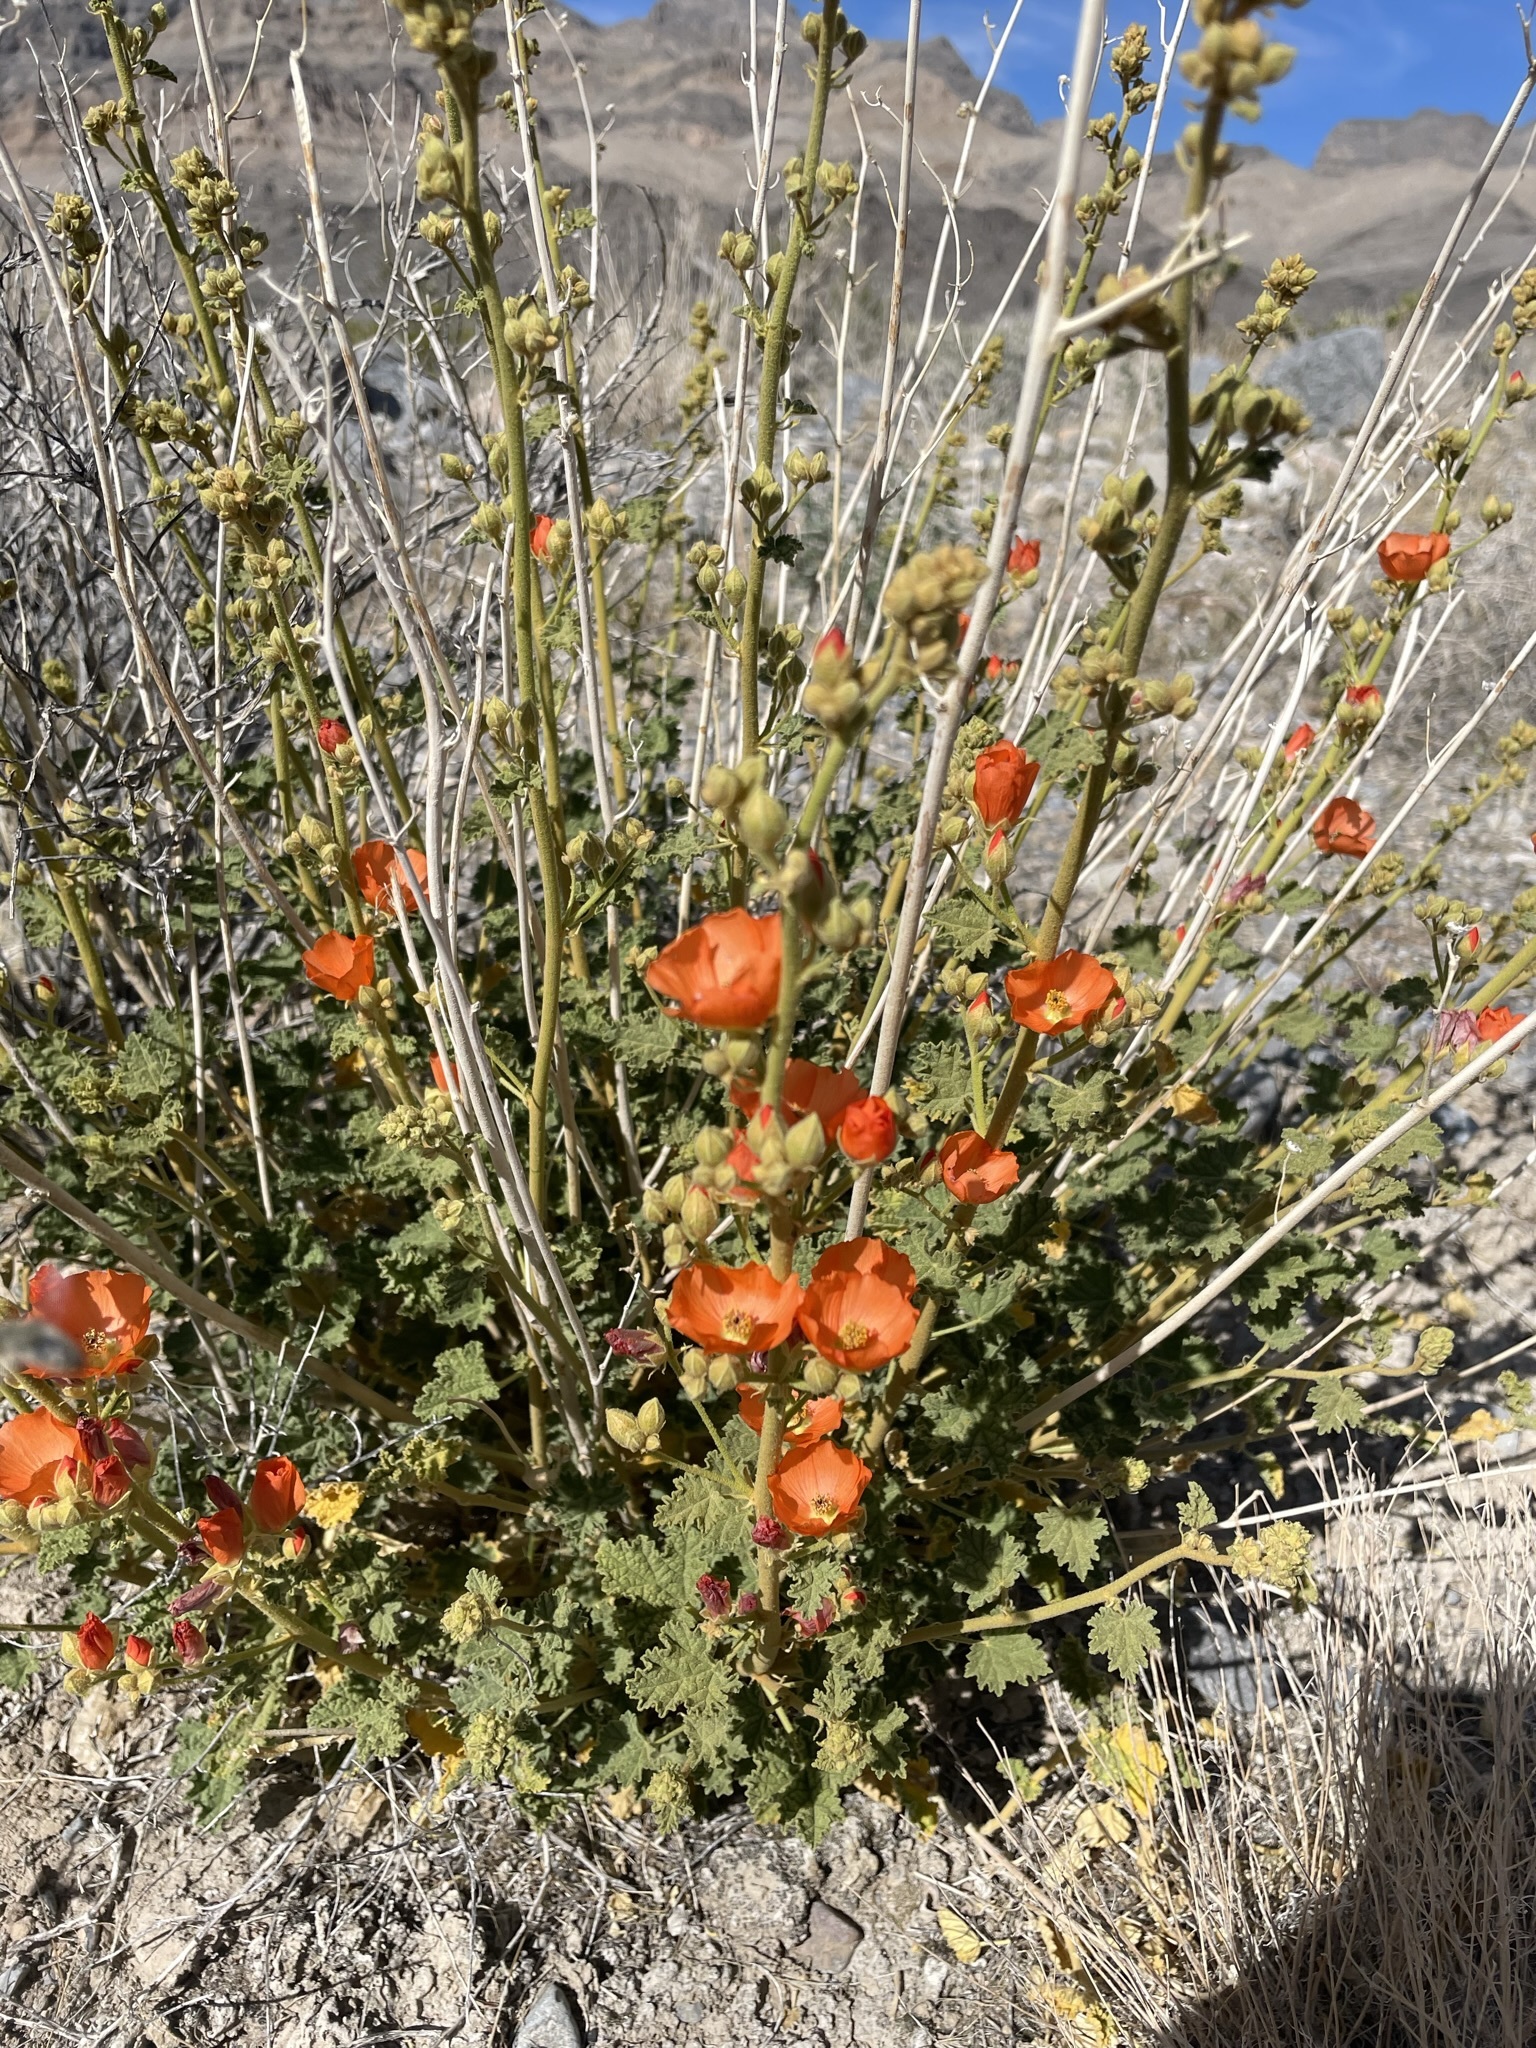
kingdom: Plantae
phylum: Tracheophyta
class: Magnoliopsida
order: Malvales
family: Malvaceae
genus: Sphaeralcea
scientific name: Sphaeralcea ambigua
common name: Apricot globe-mallow
